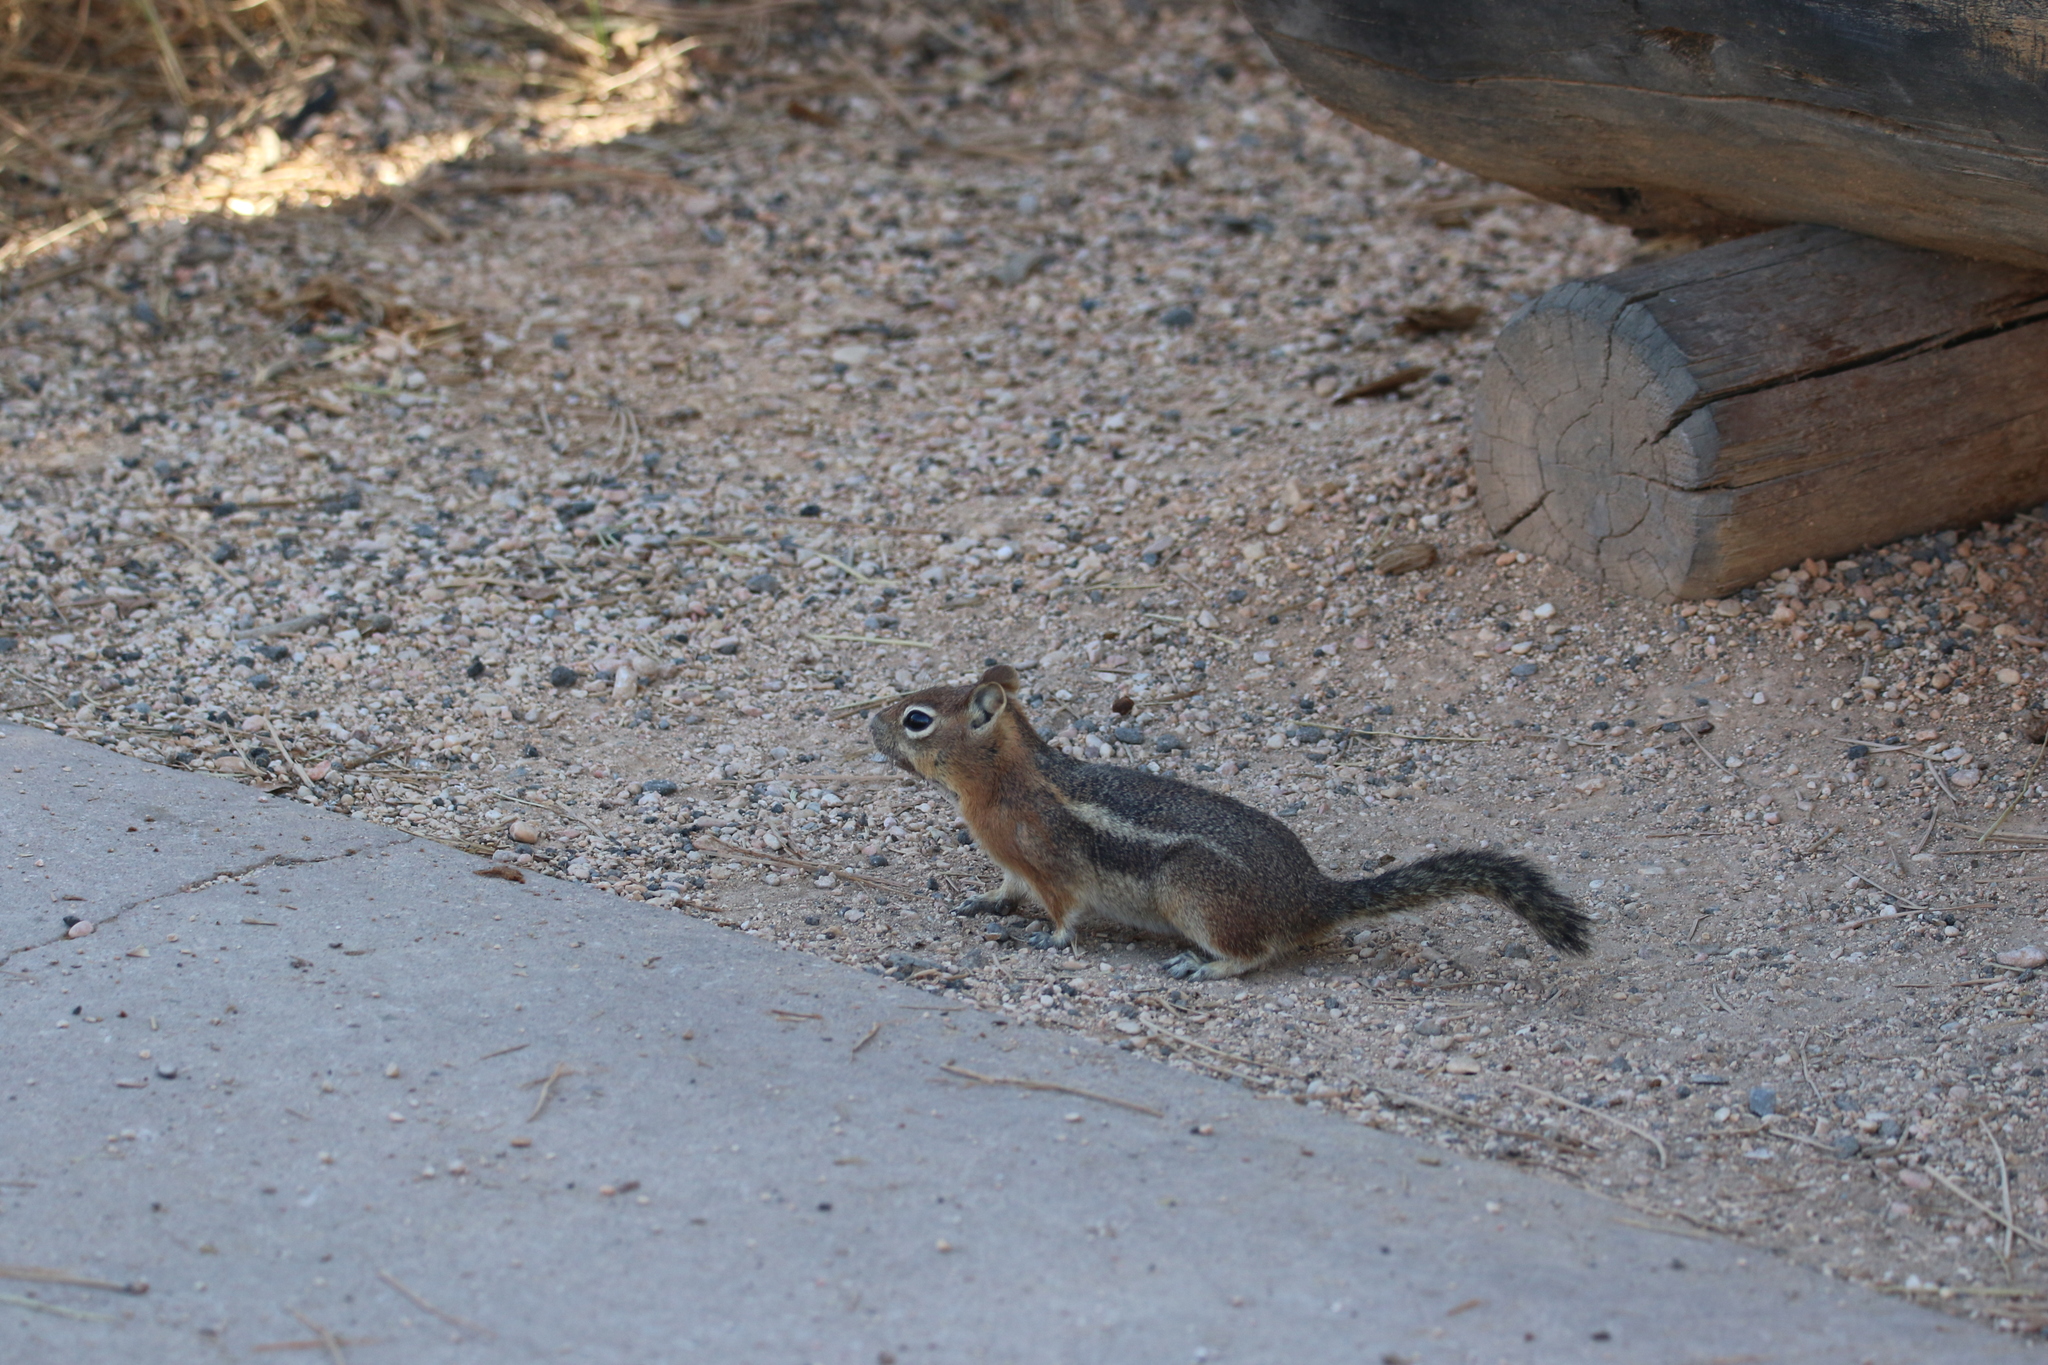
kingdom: Animalia
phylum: Chordata
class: Mammalia
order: Rodentia
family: Sciuridae
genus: Callospermophilus
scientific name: Callospermophilus lateralis
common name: Golden-mantled ground squirrel
